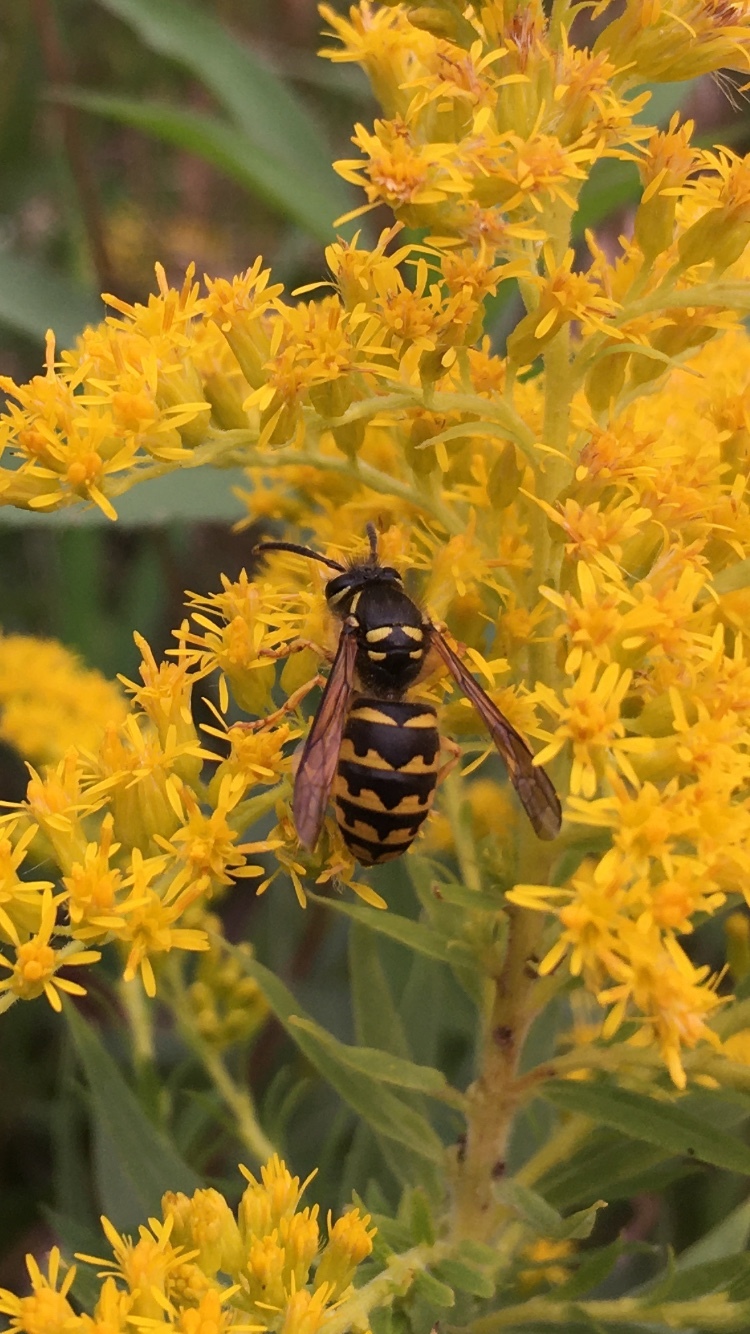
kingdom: Animalia
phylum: Arthropoda
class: Insecta
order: Hymenoptera
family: Vespidae
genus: Dolichovespula
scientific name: Dolichovespula arenaria
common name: Aerial yellowjacket
